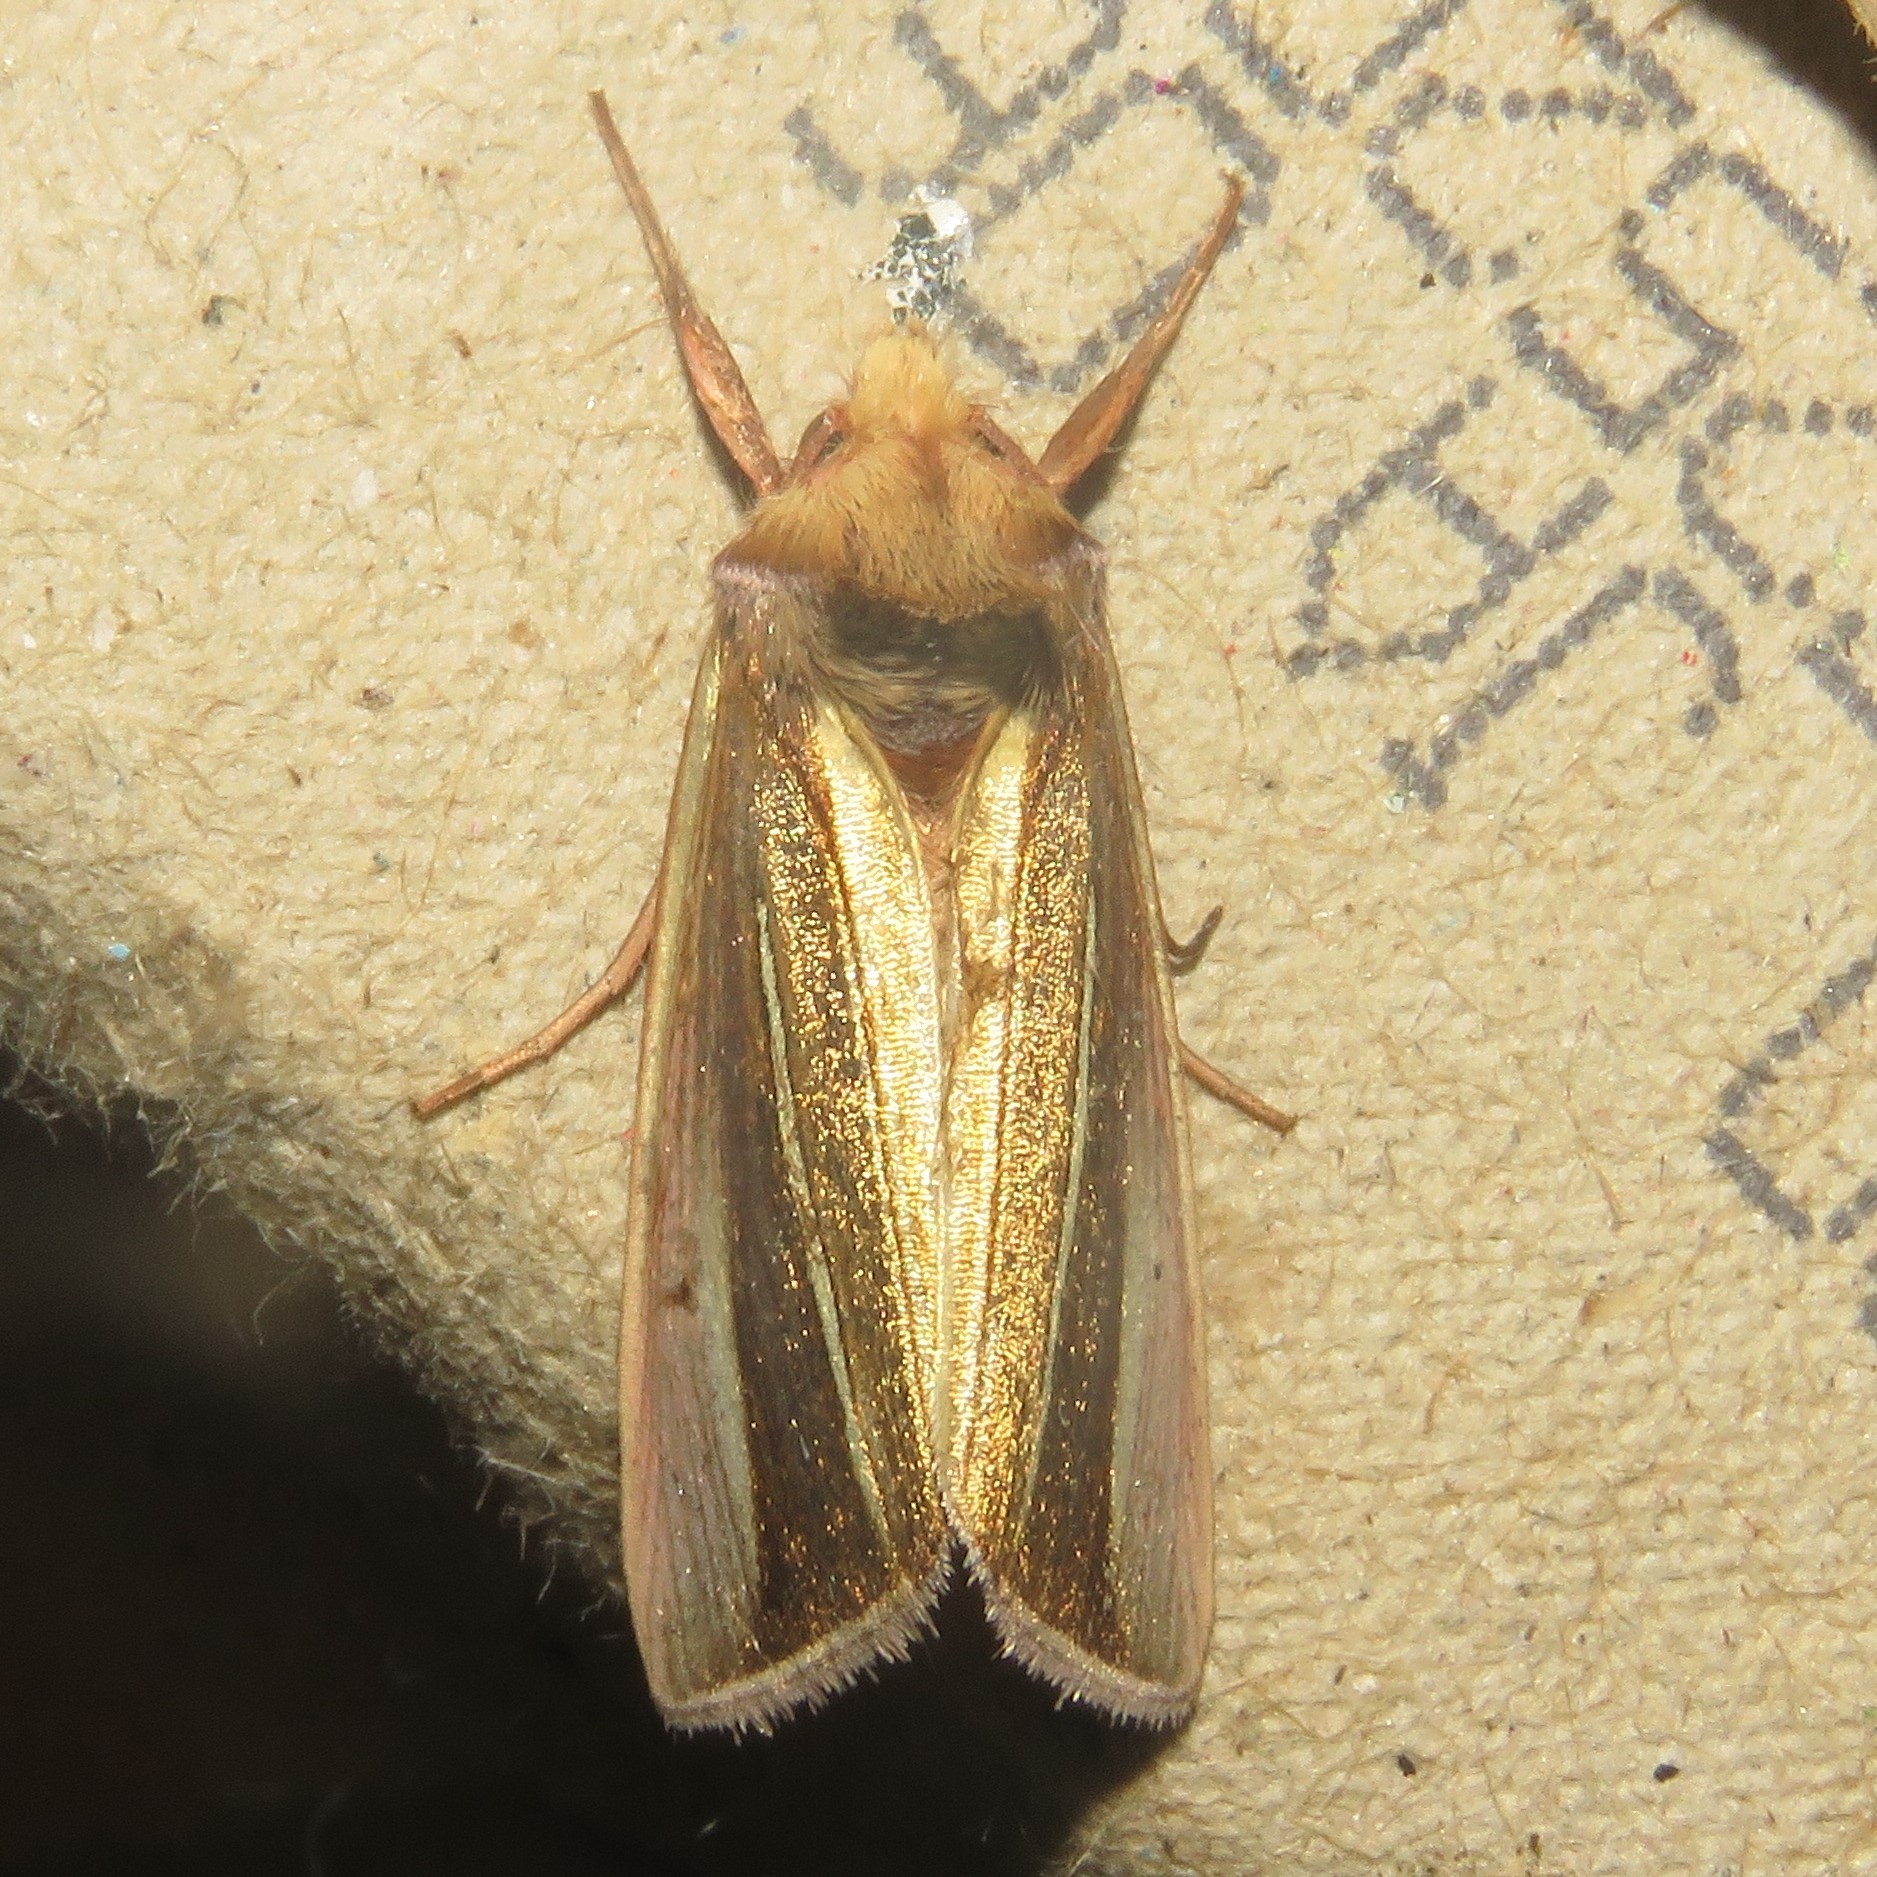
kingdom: Animalia
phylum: Arthropoda
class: Insecta
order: Lepidoptera
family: Noctuidae
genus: Plusia
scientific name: Plusia venusta
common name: White-streaked looper moth
